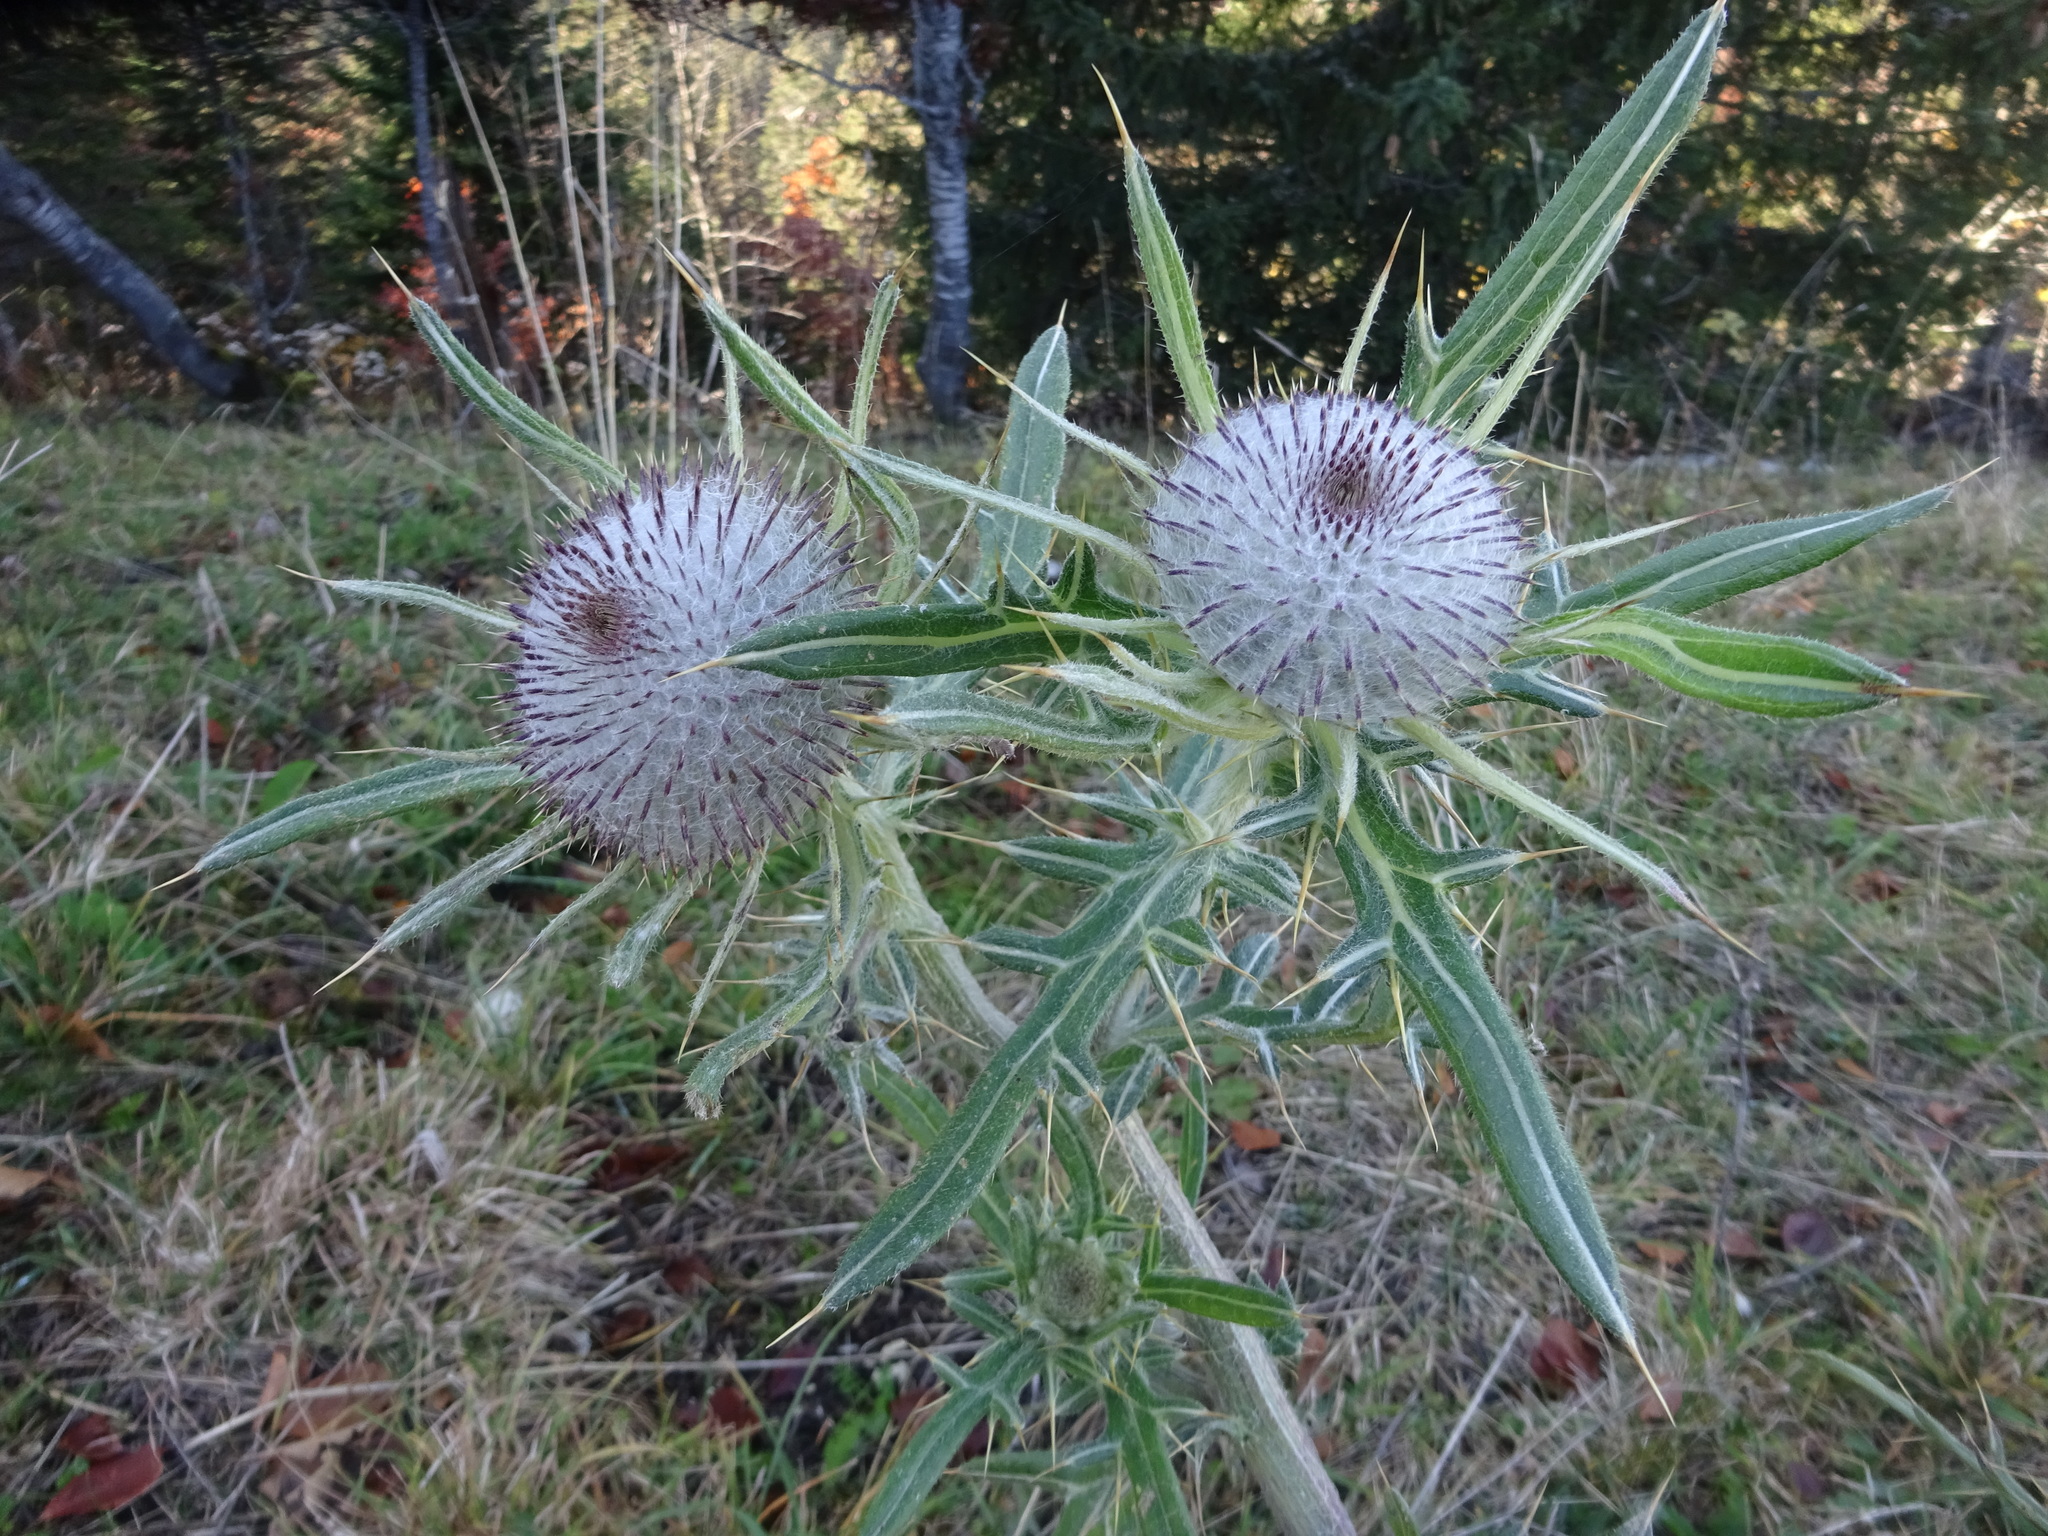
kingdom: Plantae
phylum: Tracheophyta
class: Magnoliopsida
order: Asterales
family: Asteraceae
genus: Lophiolepis
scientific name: Lophiolepis eriophora
